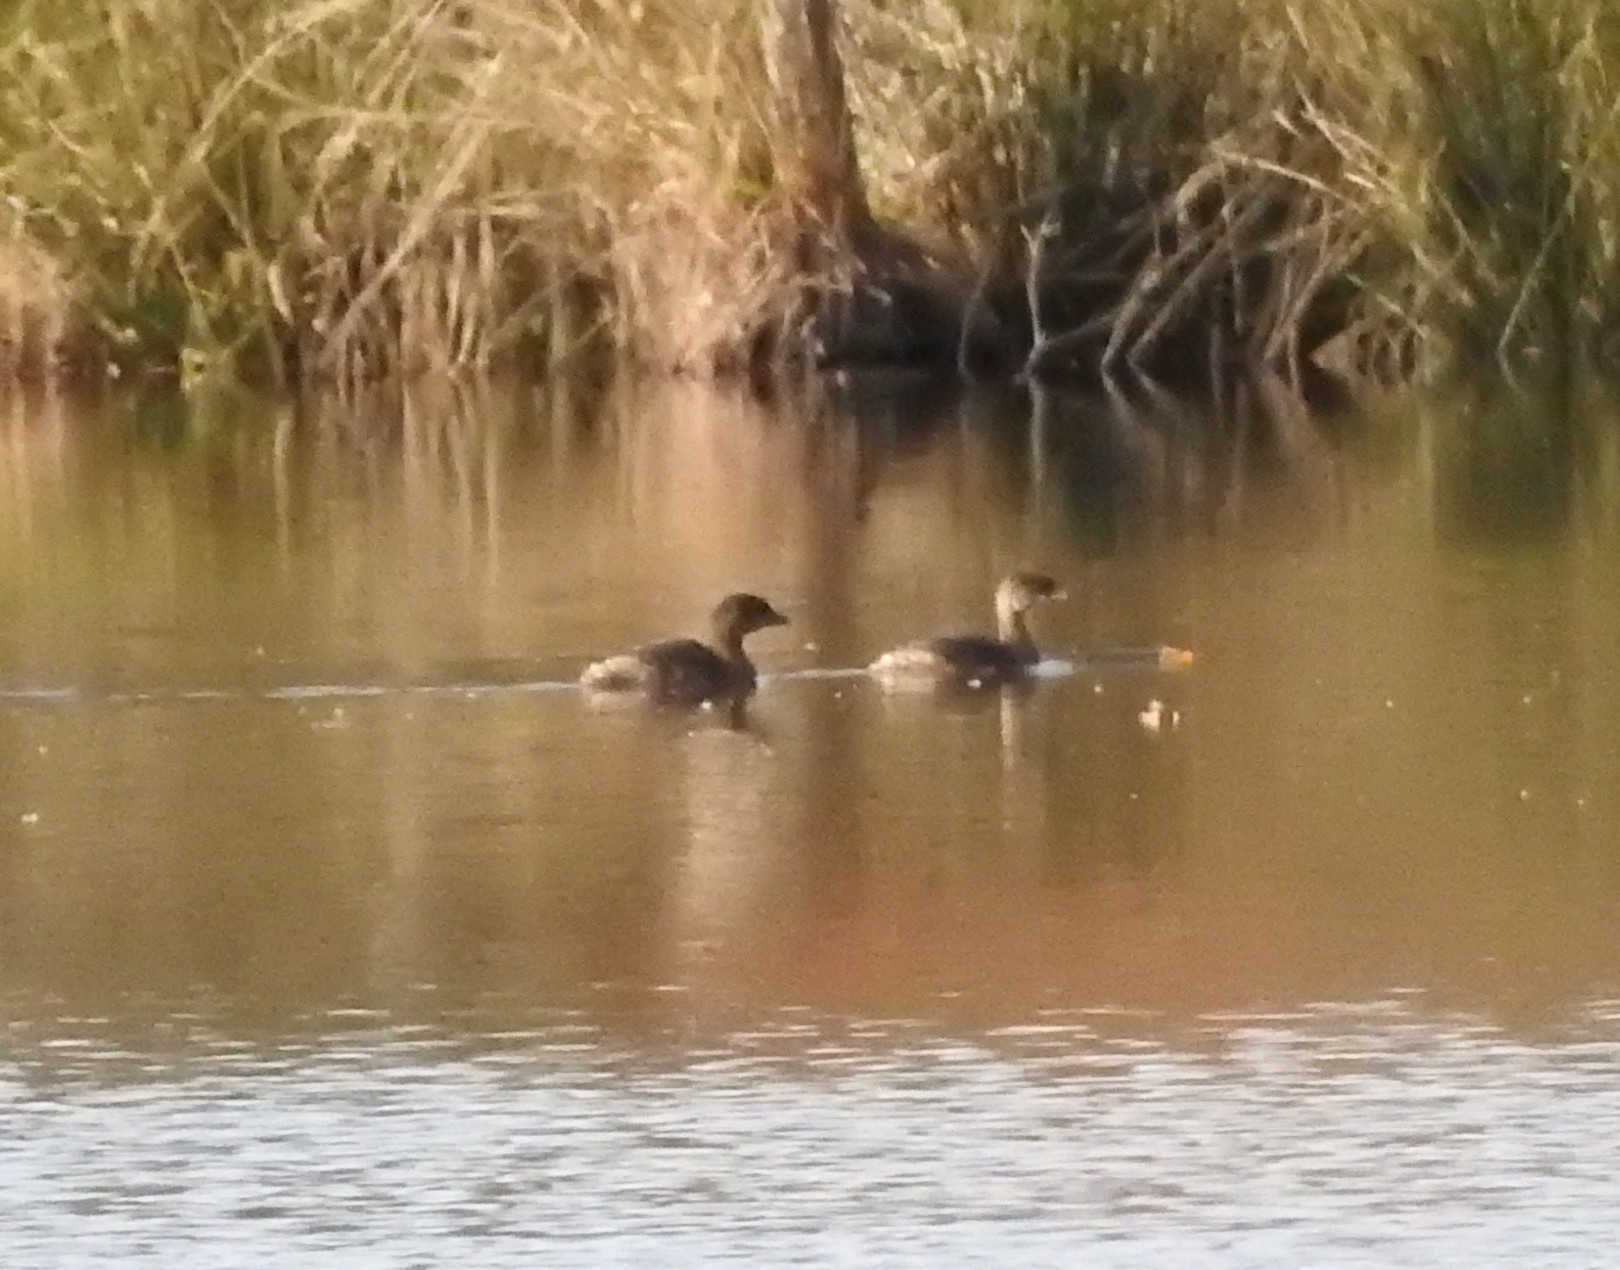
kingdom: Animalia
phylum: Chordata
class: Aves
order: Podicipediformes
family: Podicipedidae
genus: Podilymbus
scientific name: Podilymbus podiceps
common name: Pied-billed grebe
